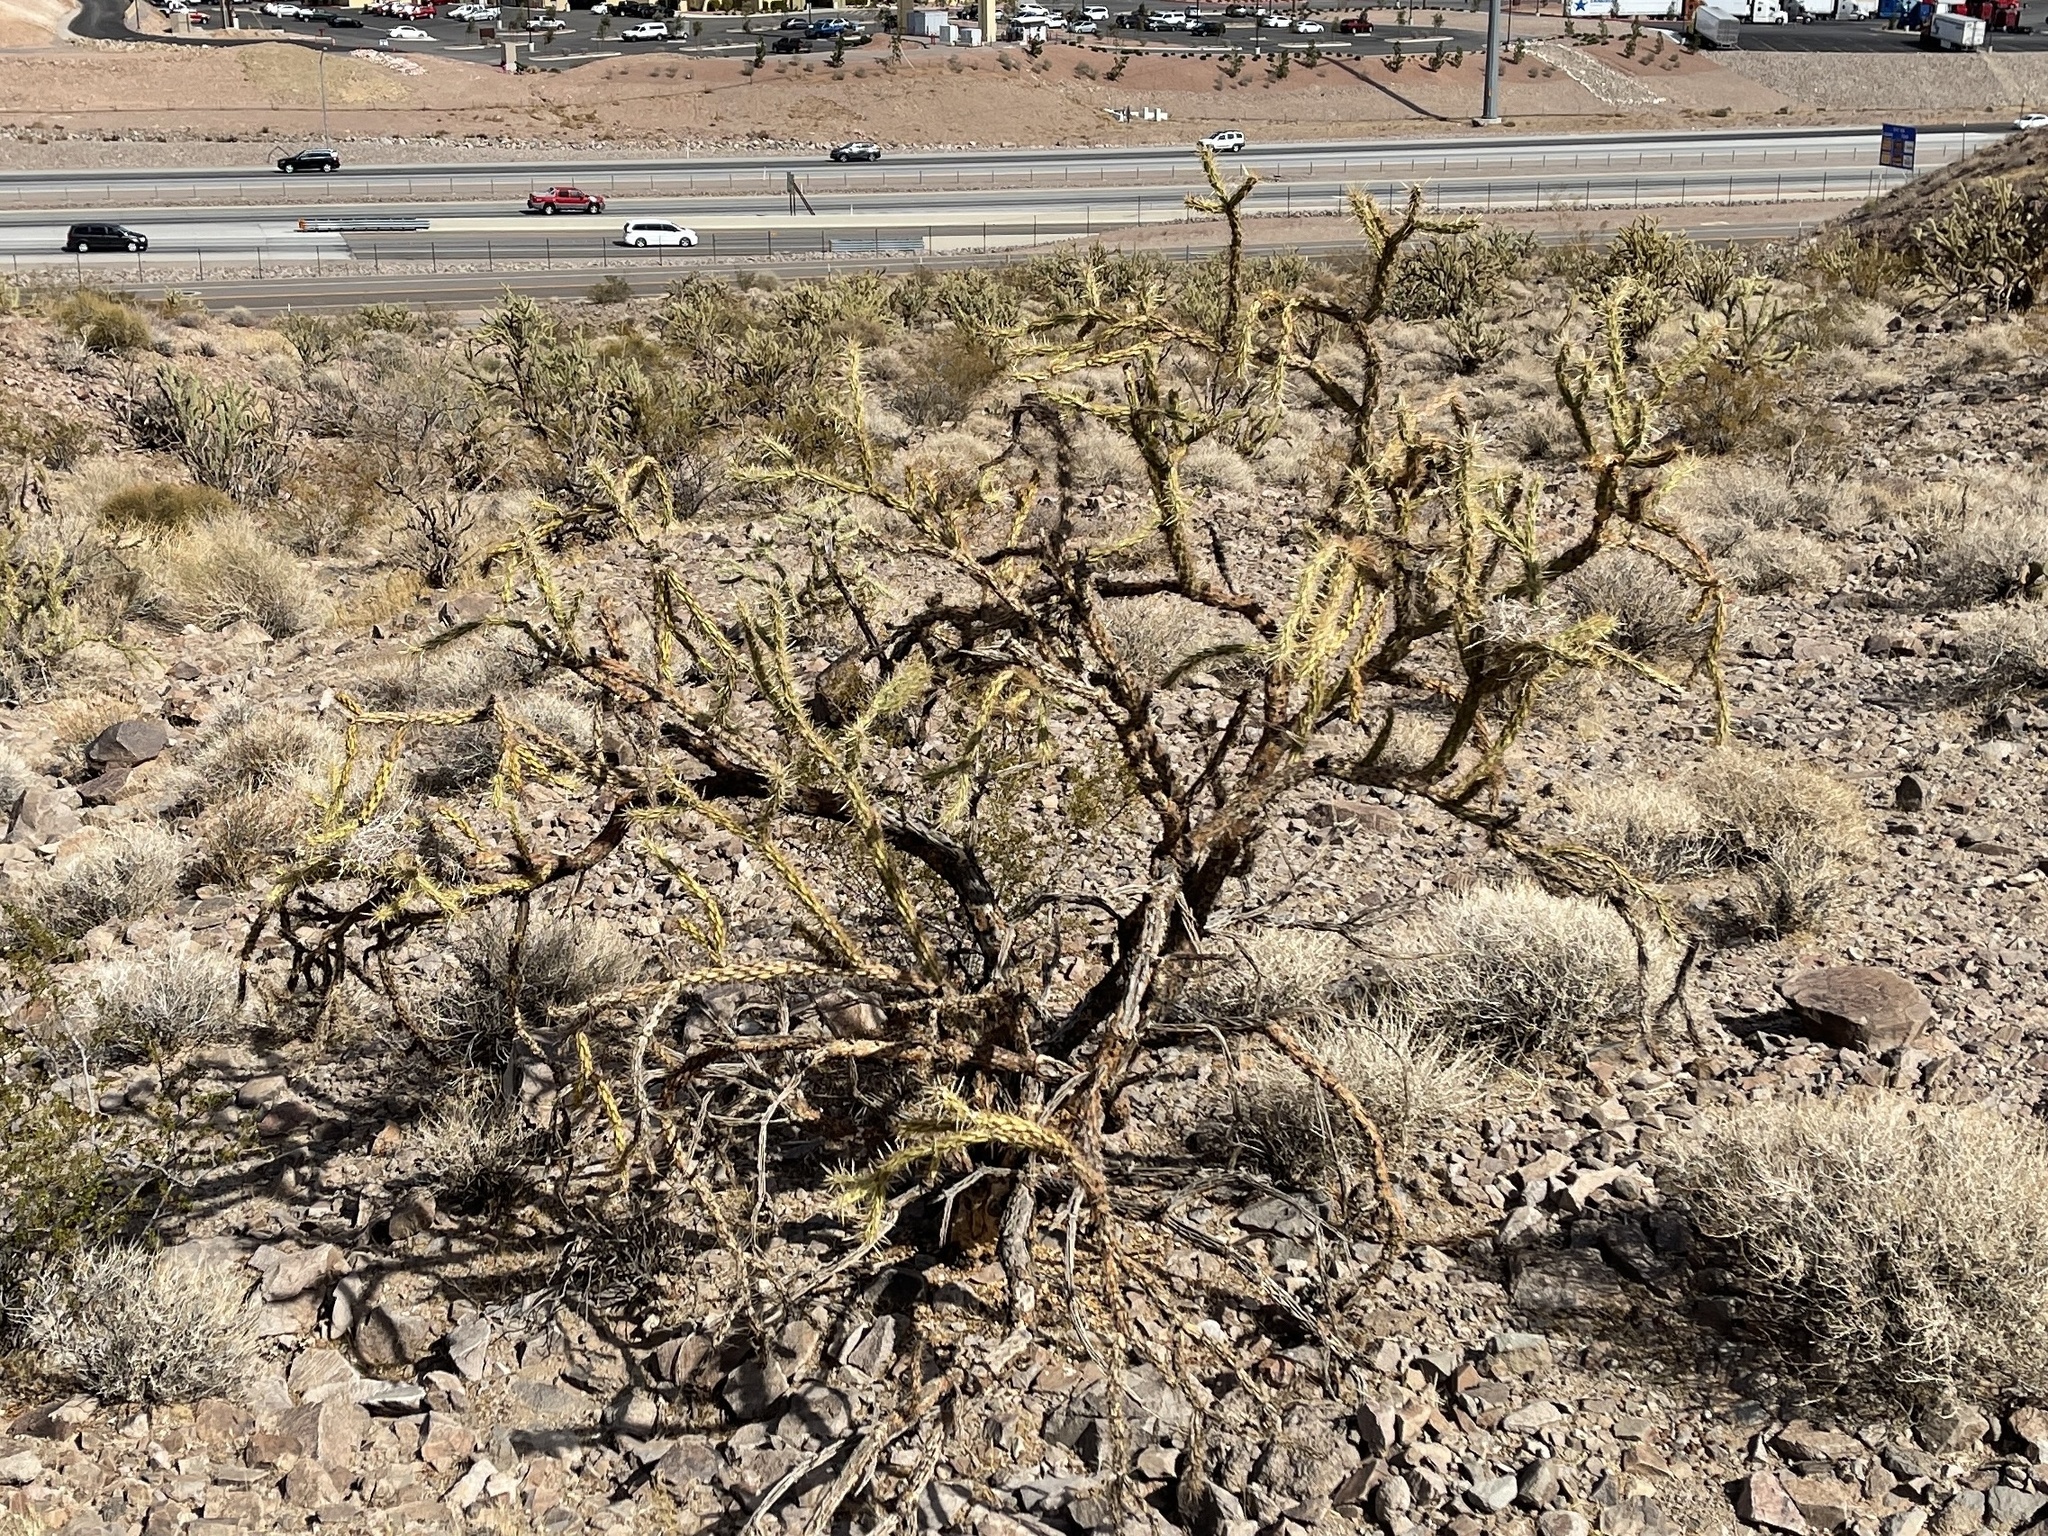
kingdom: Plantae
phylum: Tracheophyta
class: Magnoliopsida
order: Caryophyllales
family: Cactaceae
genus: Cylindropuntia
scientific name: Cylindropuntia acanthocarpa
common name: Buckhorn cholla
